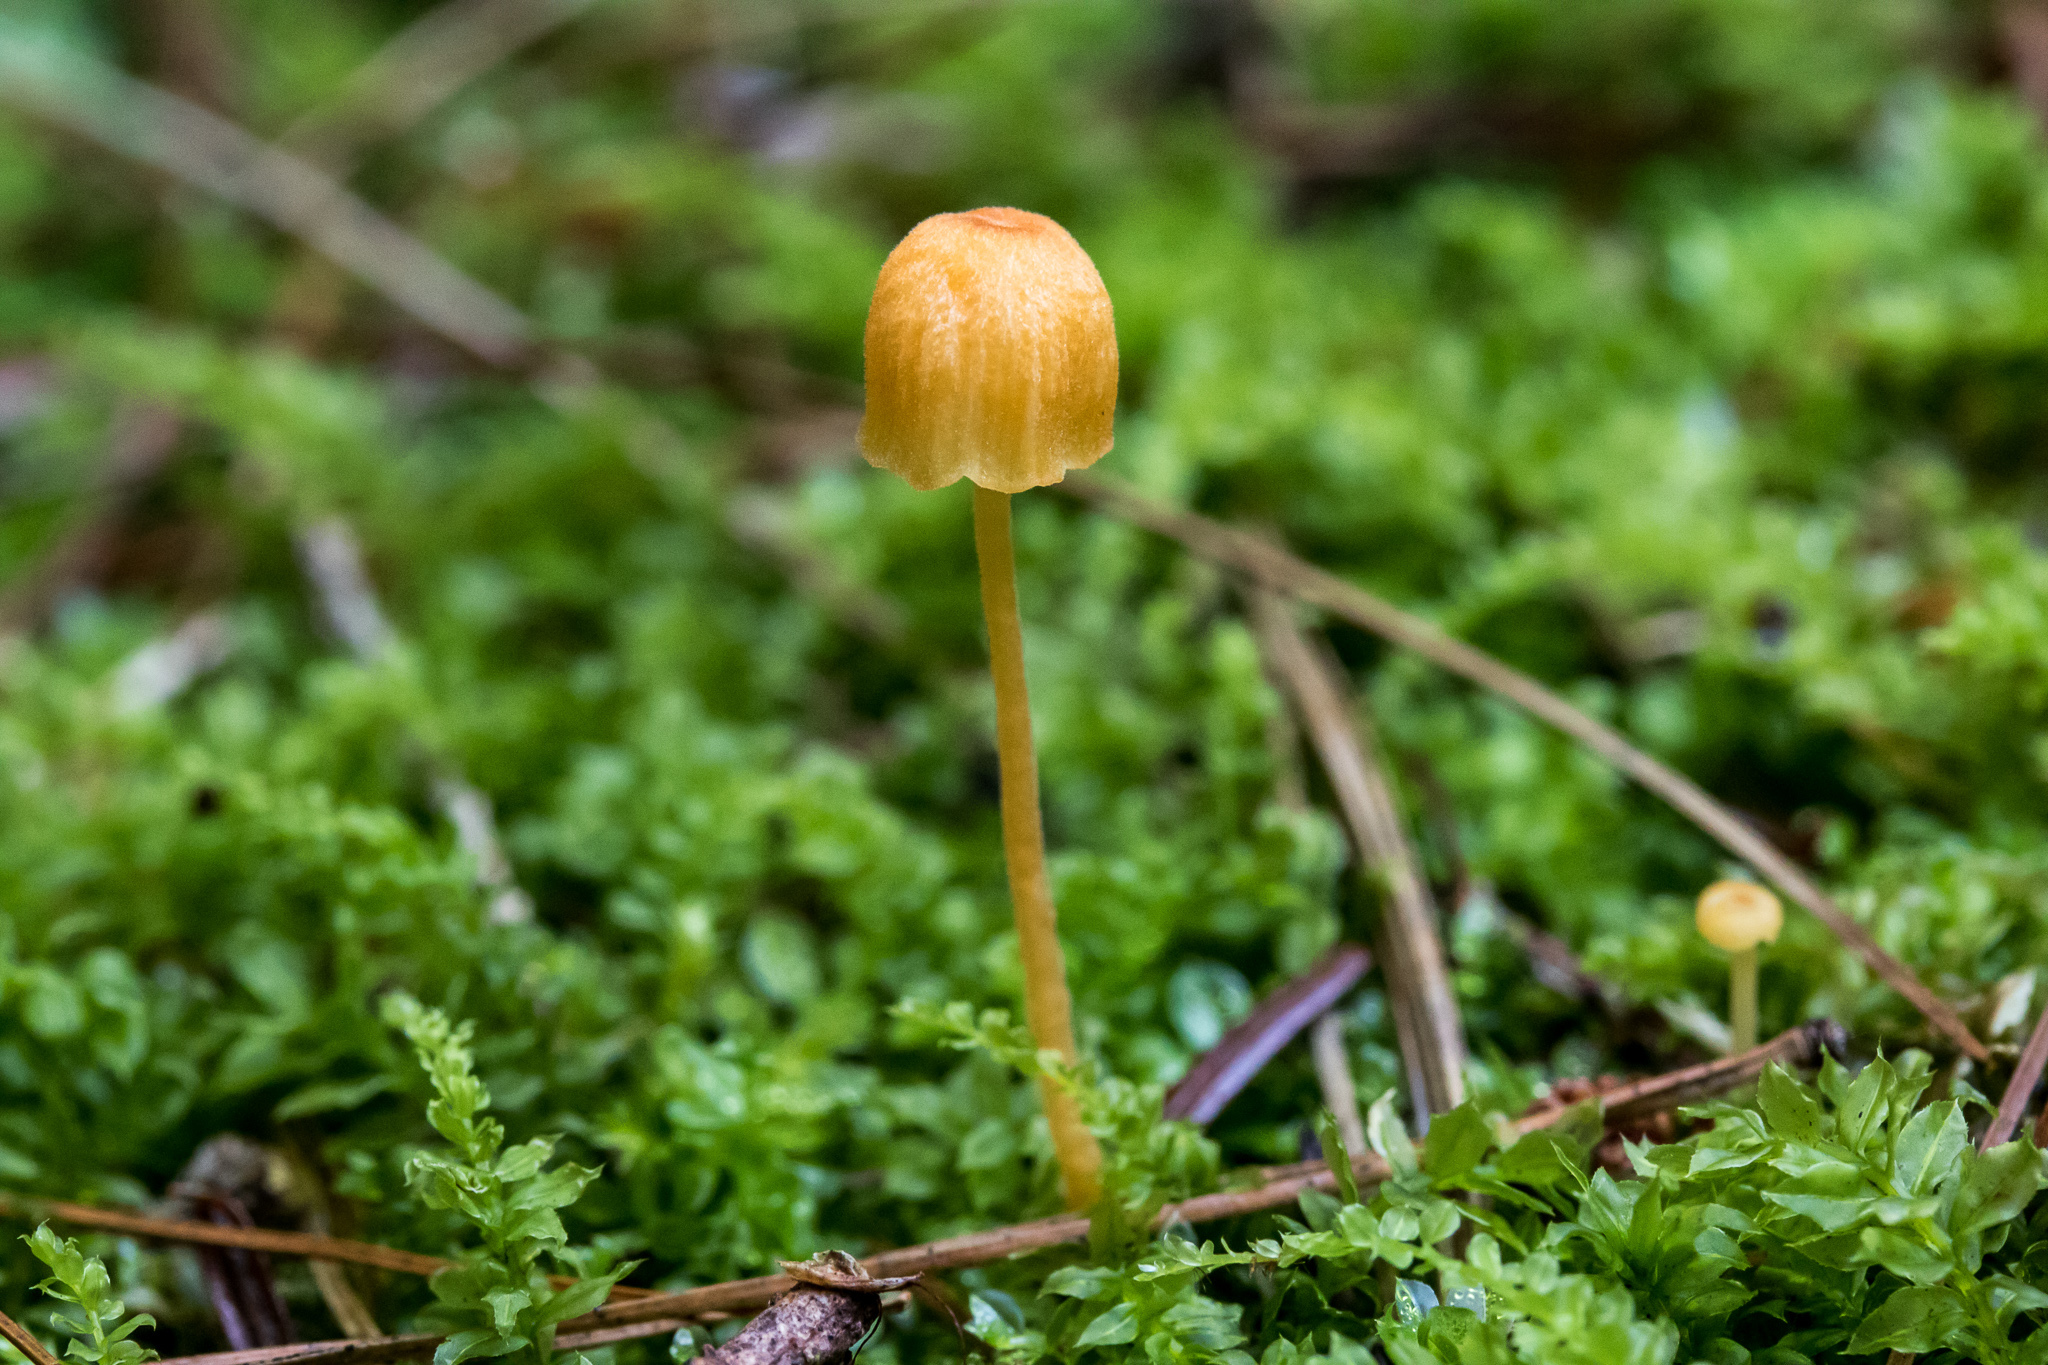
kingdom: Fungi
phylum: Basidiomycota
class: Agaricomycetes
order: Hymenochaetales
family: Rickenellaceae
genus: Rickenella
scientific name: Rickenella fibula
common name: Orange mosscap
